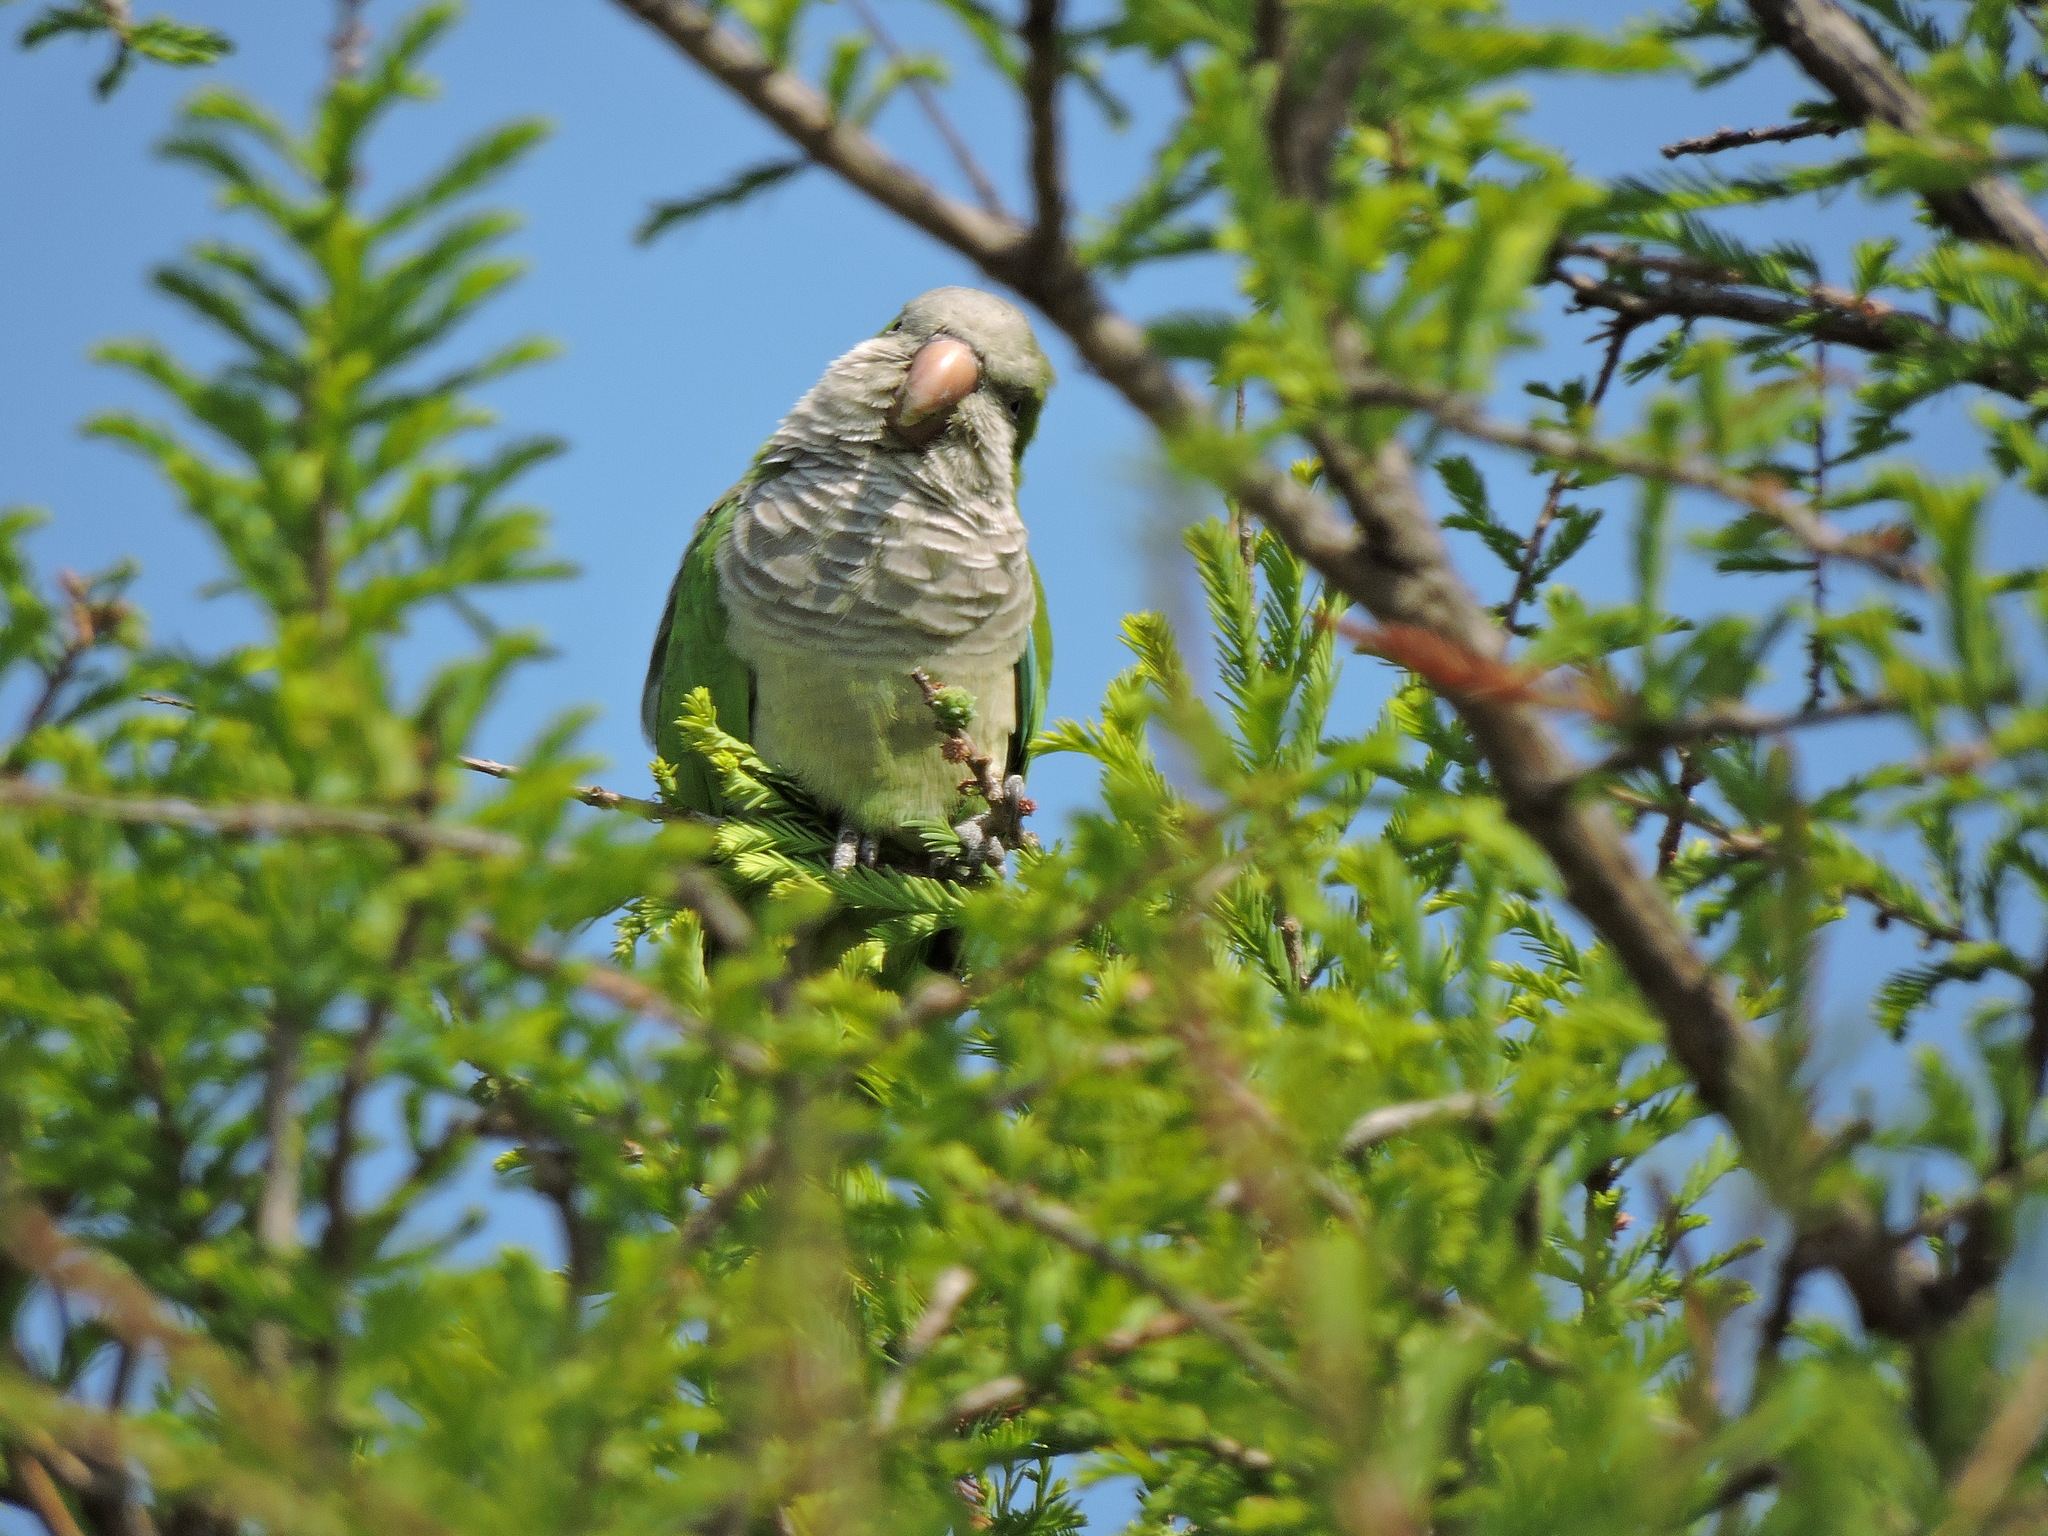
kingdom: Animalia
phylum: Chordata
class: Aves
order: Psittaciformes
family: Psittacidae
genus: Myiopsitta
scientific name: Myiopsitta monachus
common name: Monk parakeet
